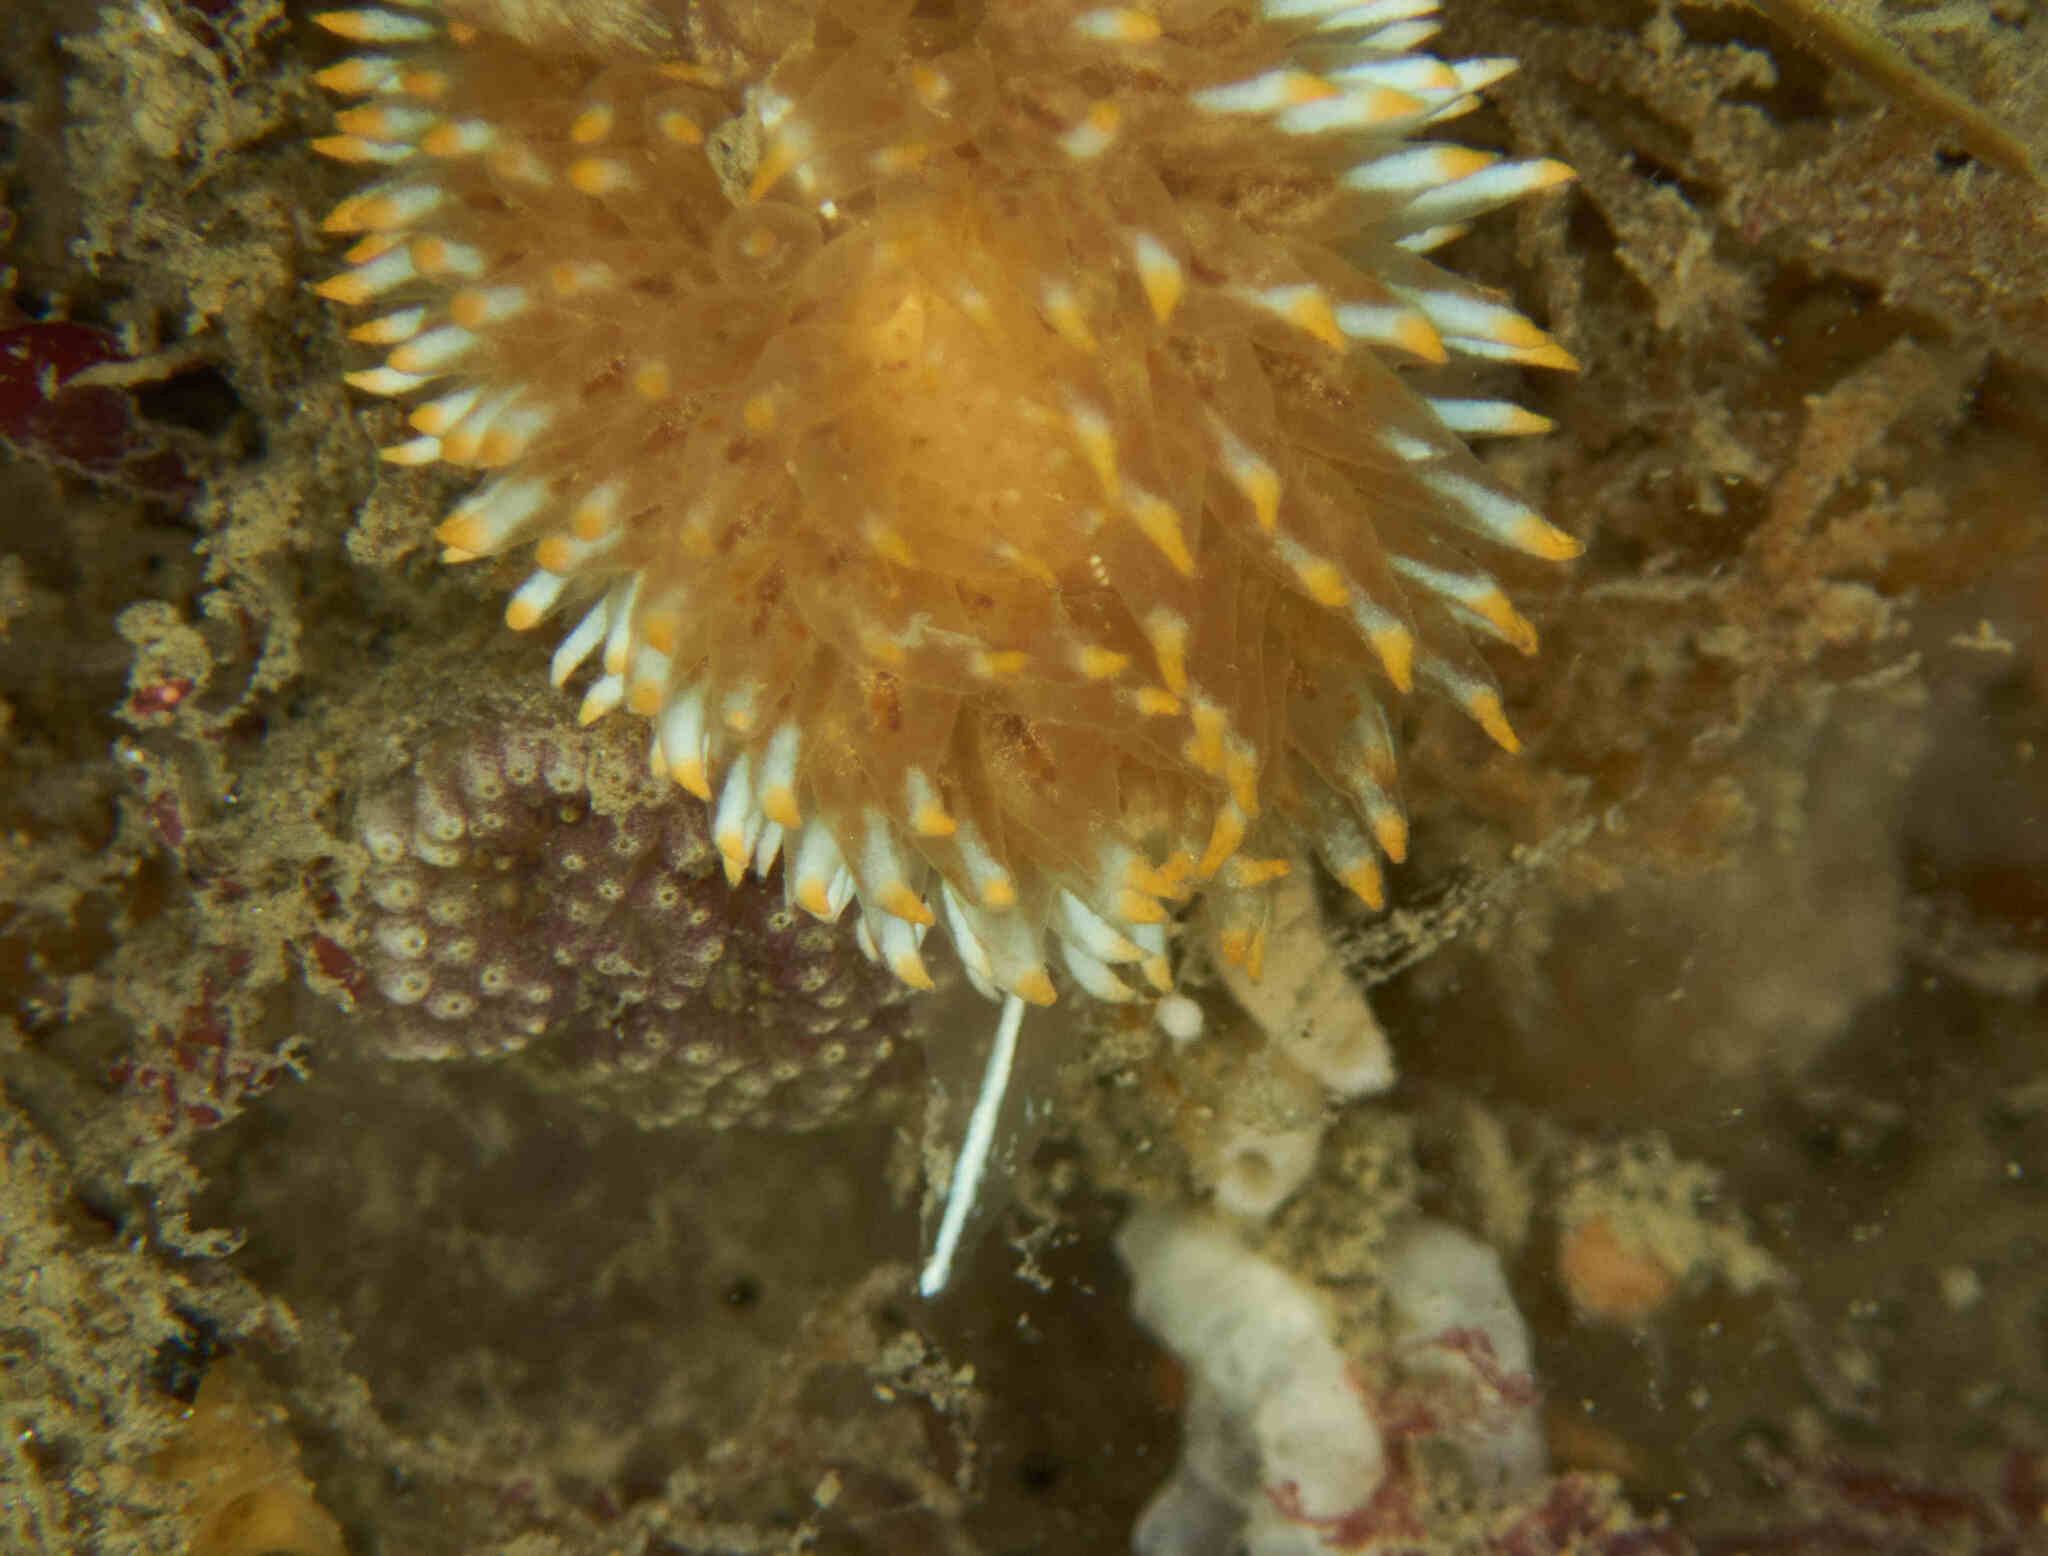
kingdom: Animalia
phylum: Mollusca
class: Gastropoda
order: Nudibranchia
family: Janolidae
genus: Antiopella
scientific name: Antiopella novozealandica
